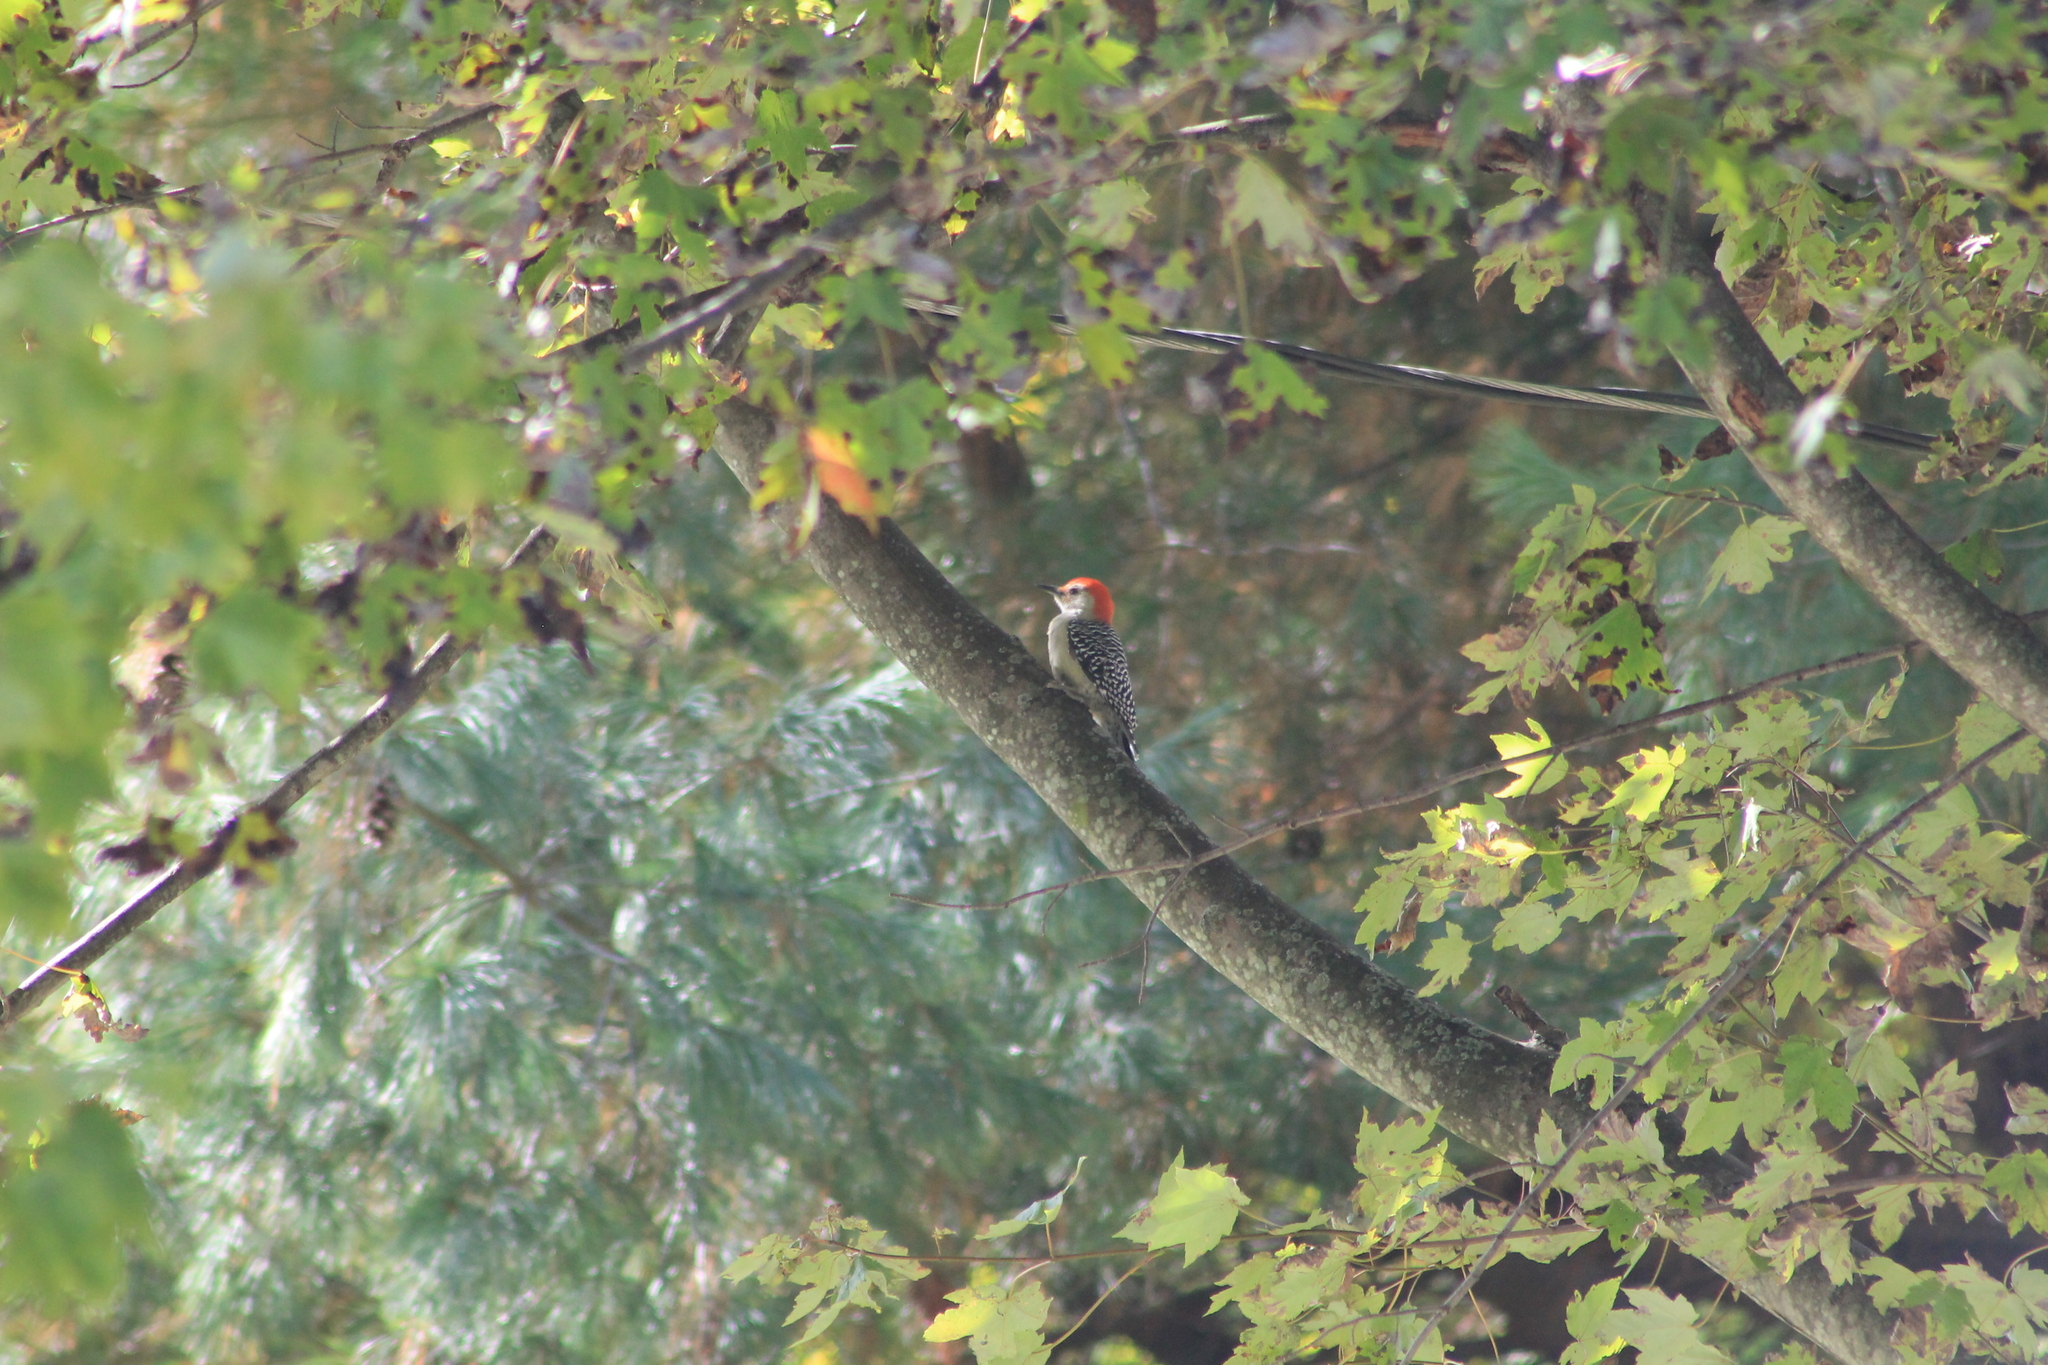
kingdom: Animalia
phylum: Chordata
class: Aves
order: Piciformes
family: Picidae
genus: Melanerpes
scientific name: Melanerpes carolinus
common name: Red-bellied woodpecker
